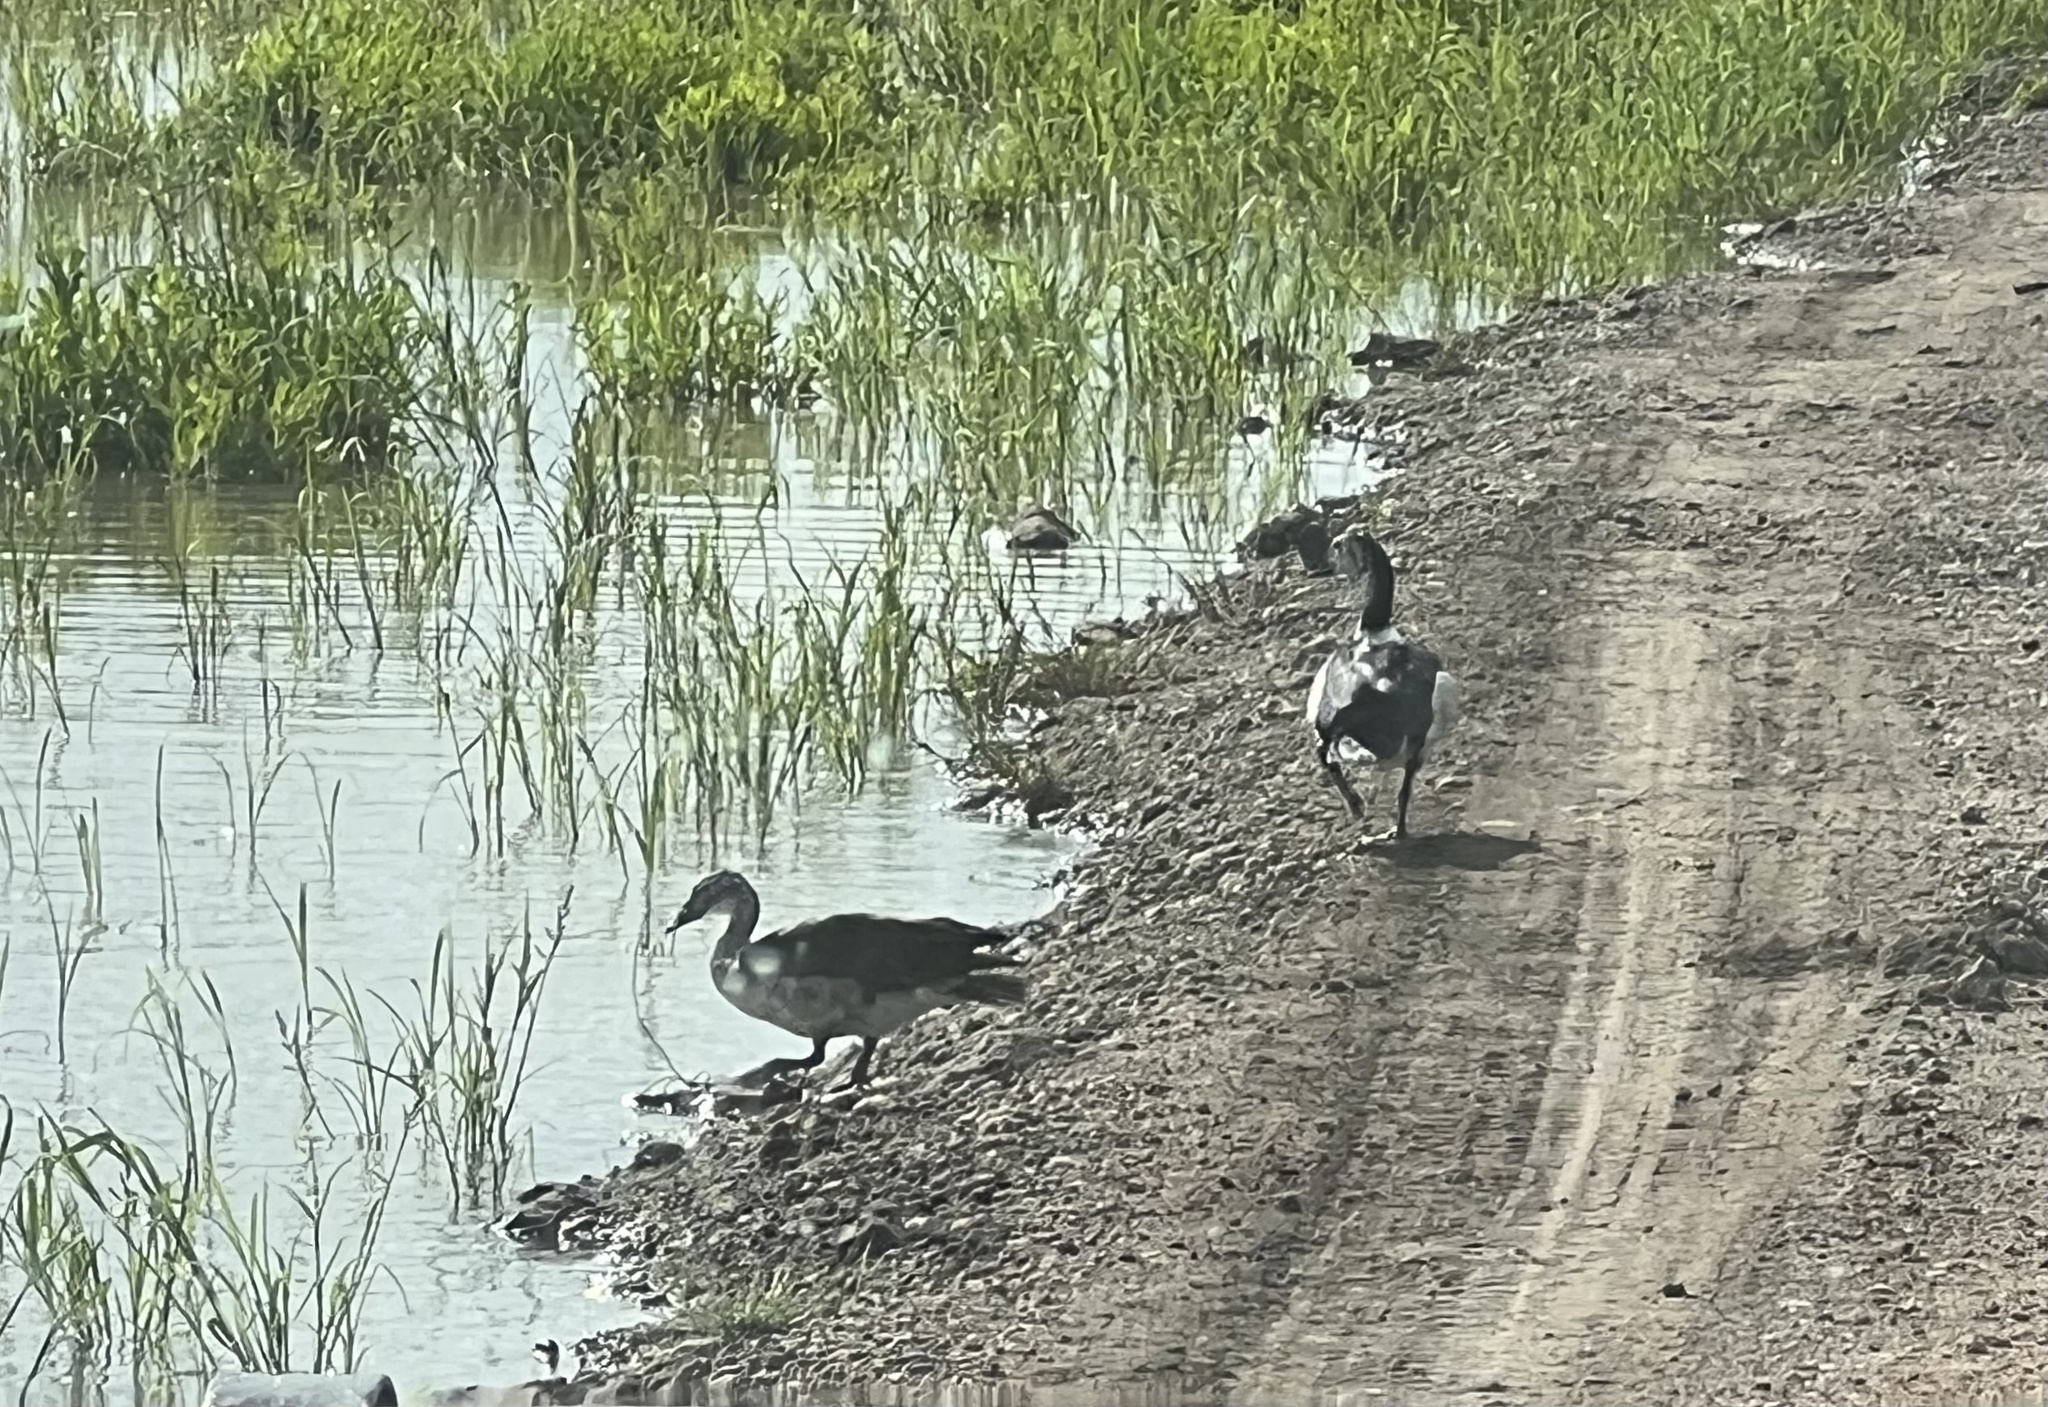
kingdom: Animalia
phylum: Chordata
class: Aves
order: Anseriformes
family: Anatidae
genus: Sarkidiornis
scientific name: Sarkidiornis melanotos
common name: Comb duck
